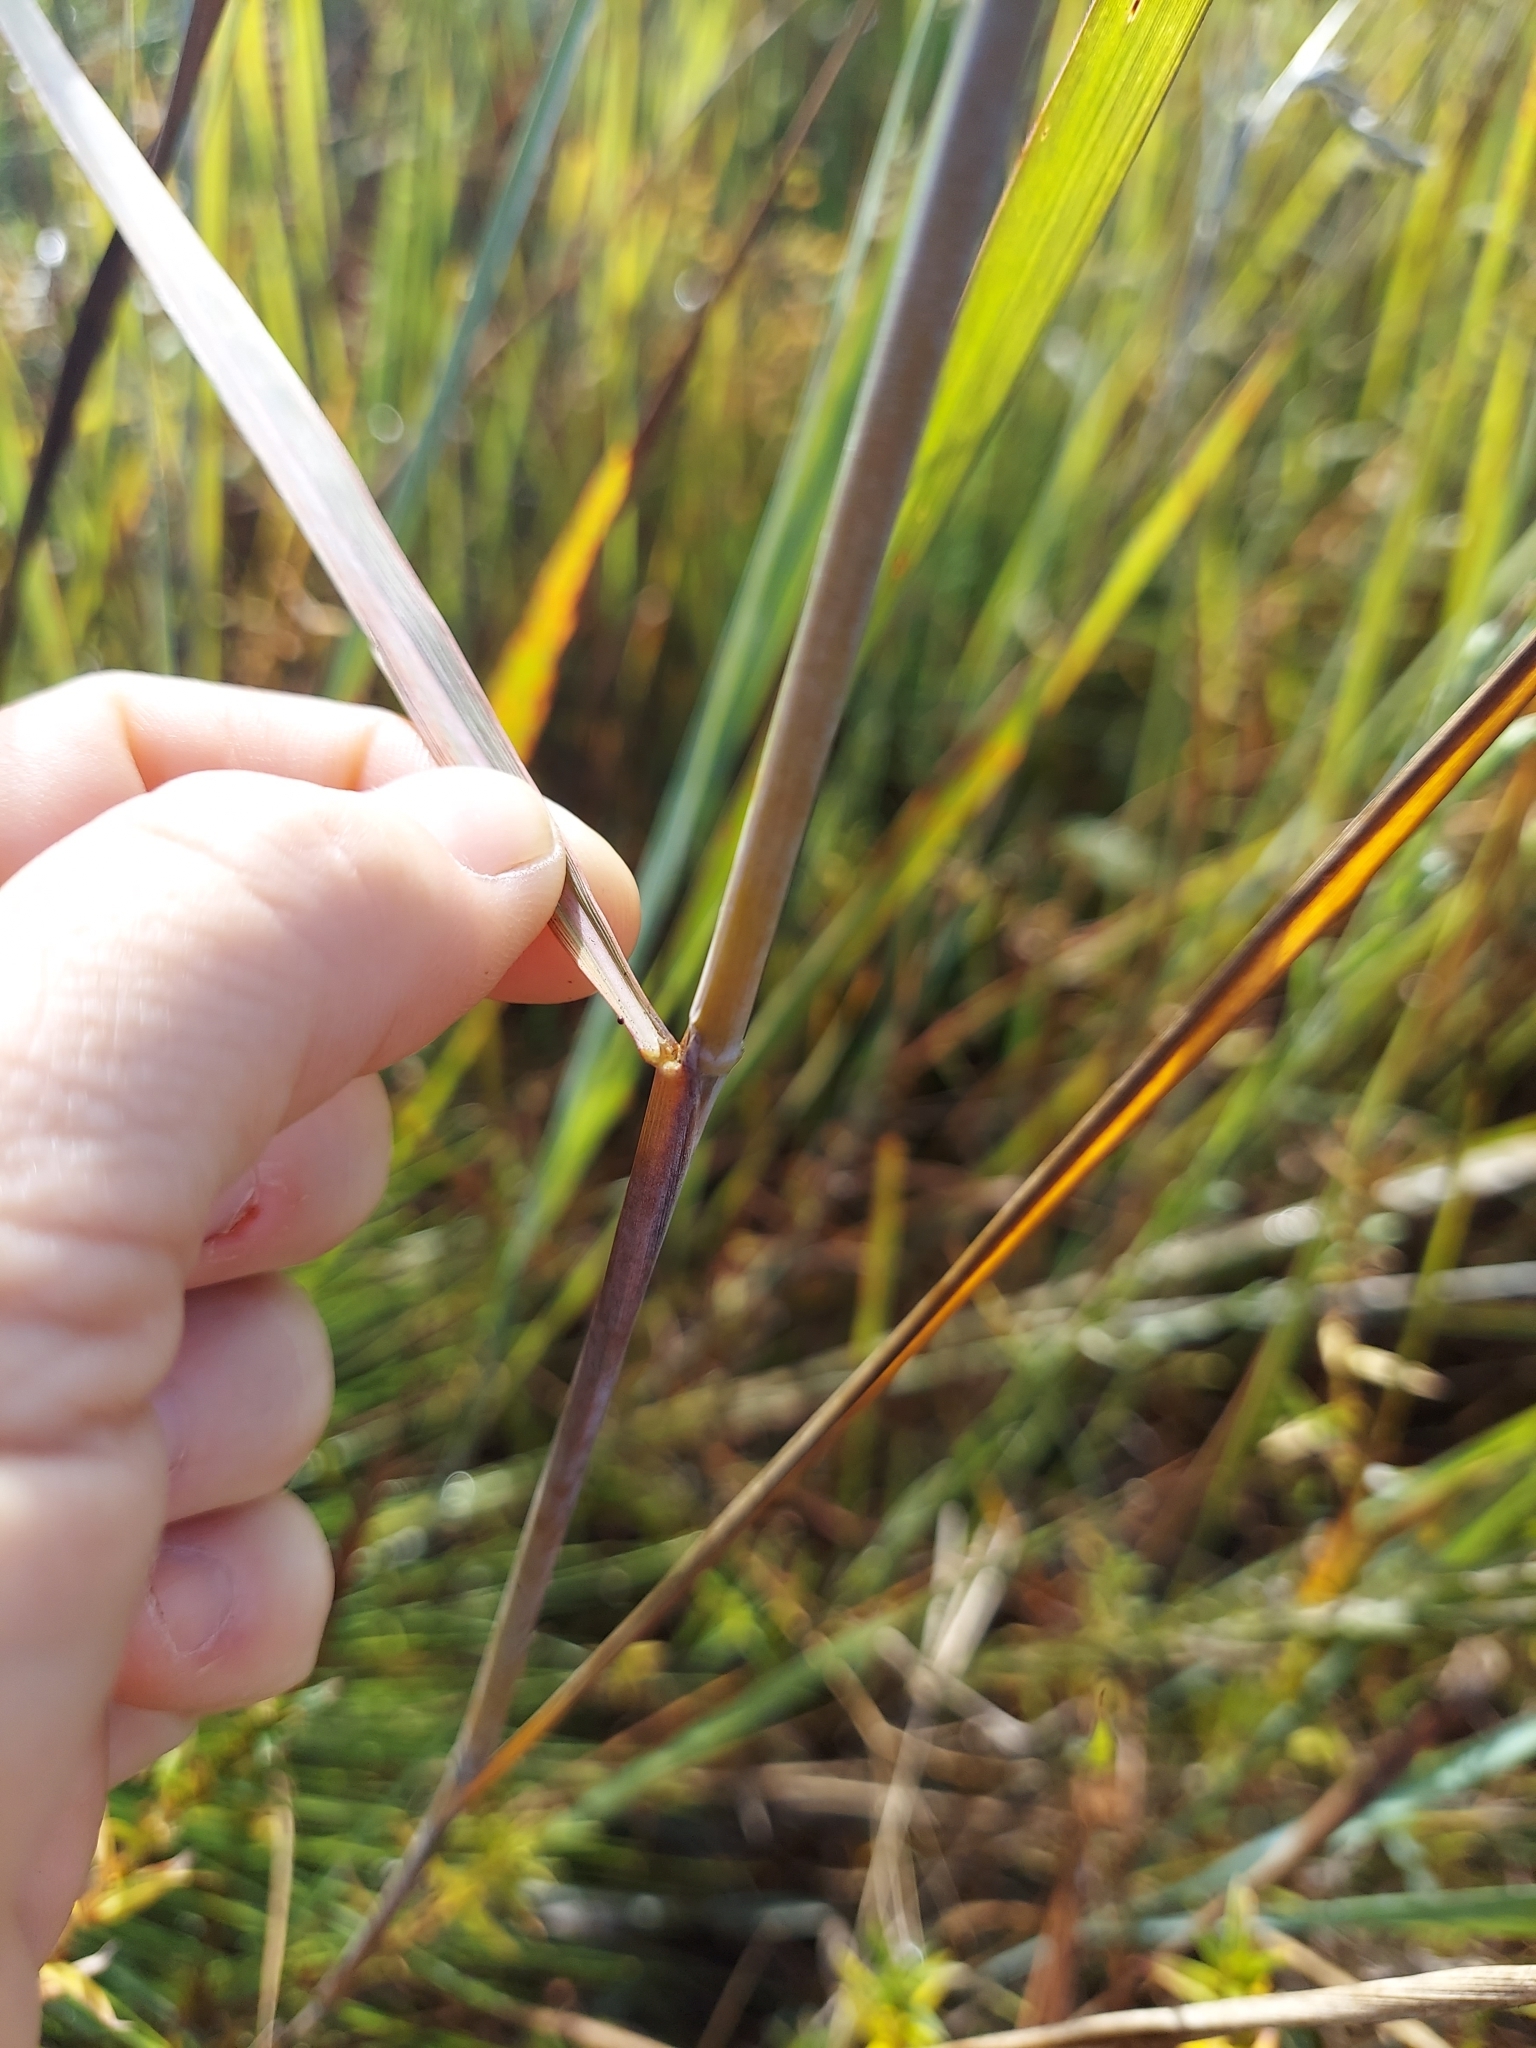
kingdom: Plantae
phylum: Tracheophyta
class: Liliopsida
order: Poales
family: Poaceae
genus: Sorghastrum
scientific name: Sorghastrum nutans
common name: Indian grass
